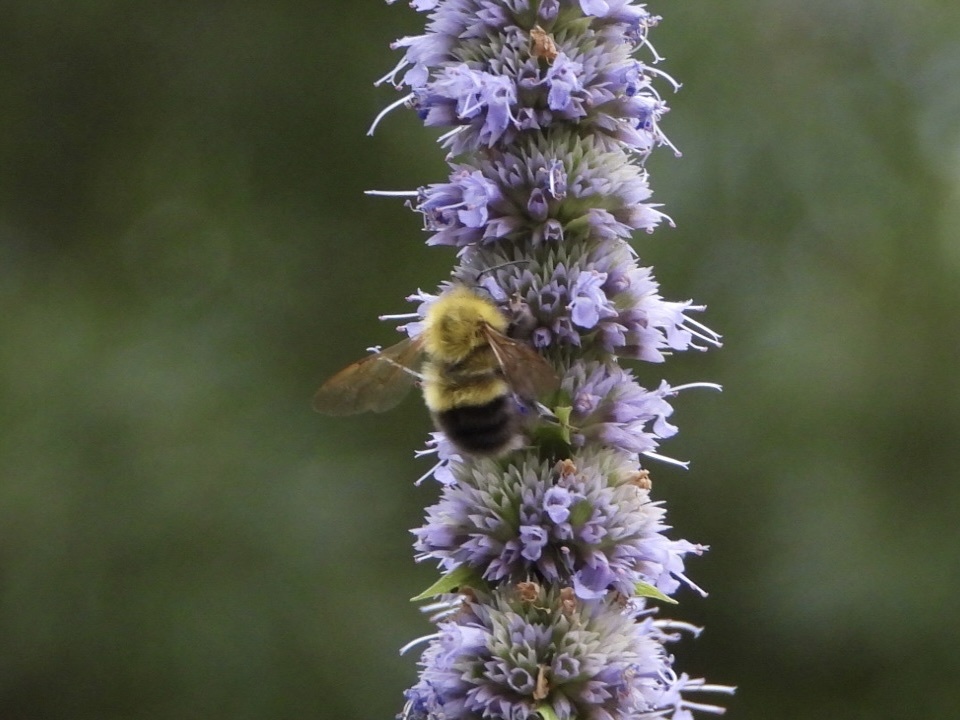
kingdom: Animalia
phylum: Arthropoda
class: Insecta
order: Hymenoptera
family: Apidae
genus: Bombus
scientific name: Bombus perplexus
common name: Confusing bumble bee
